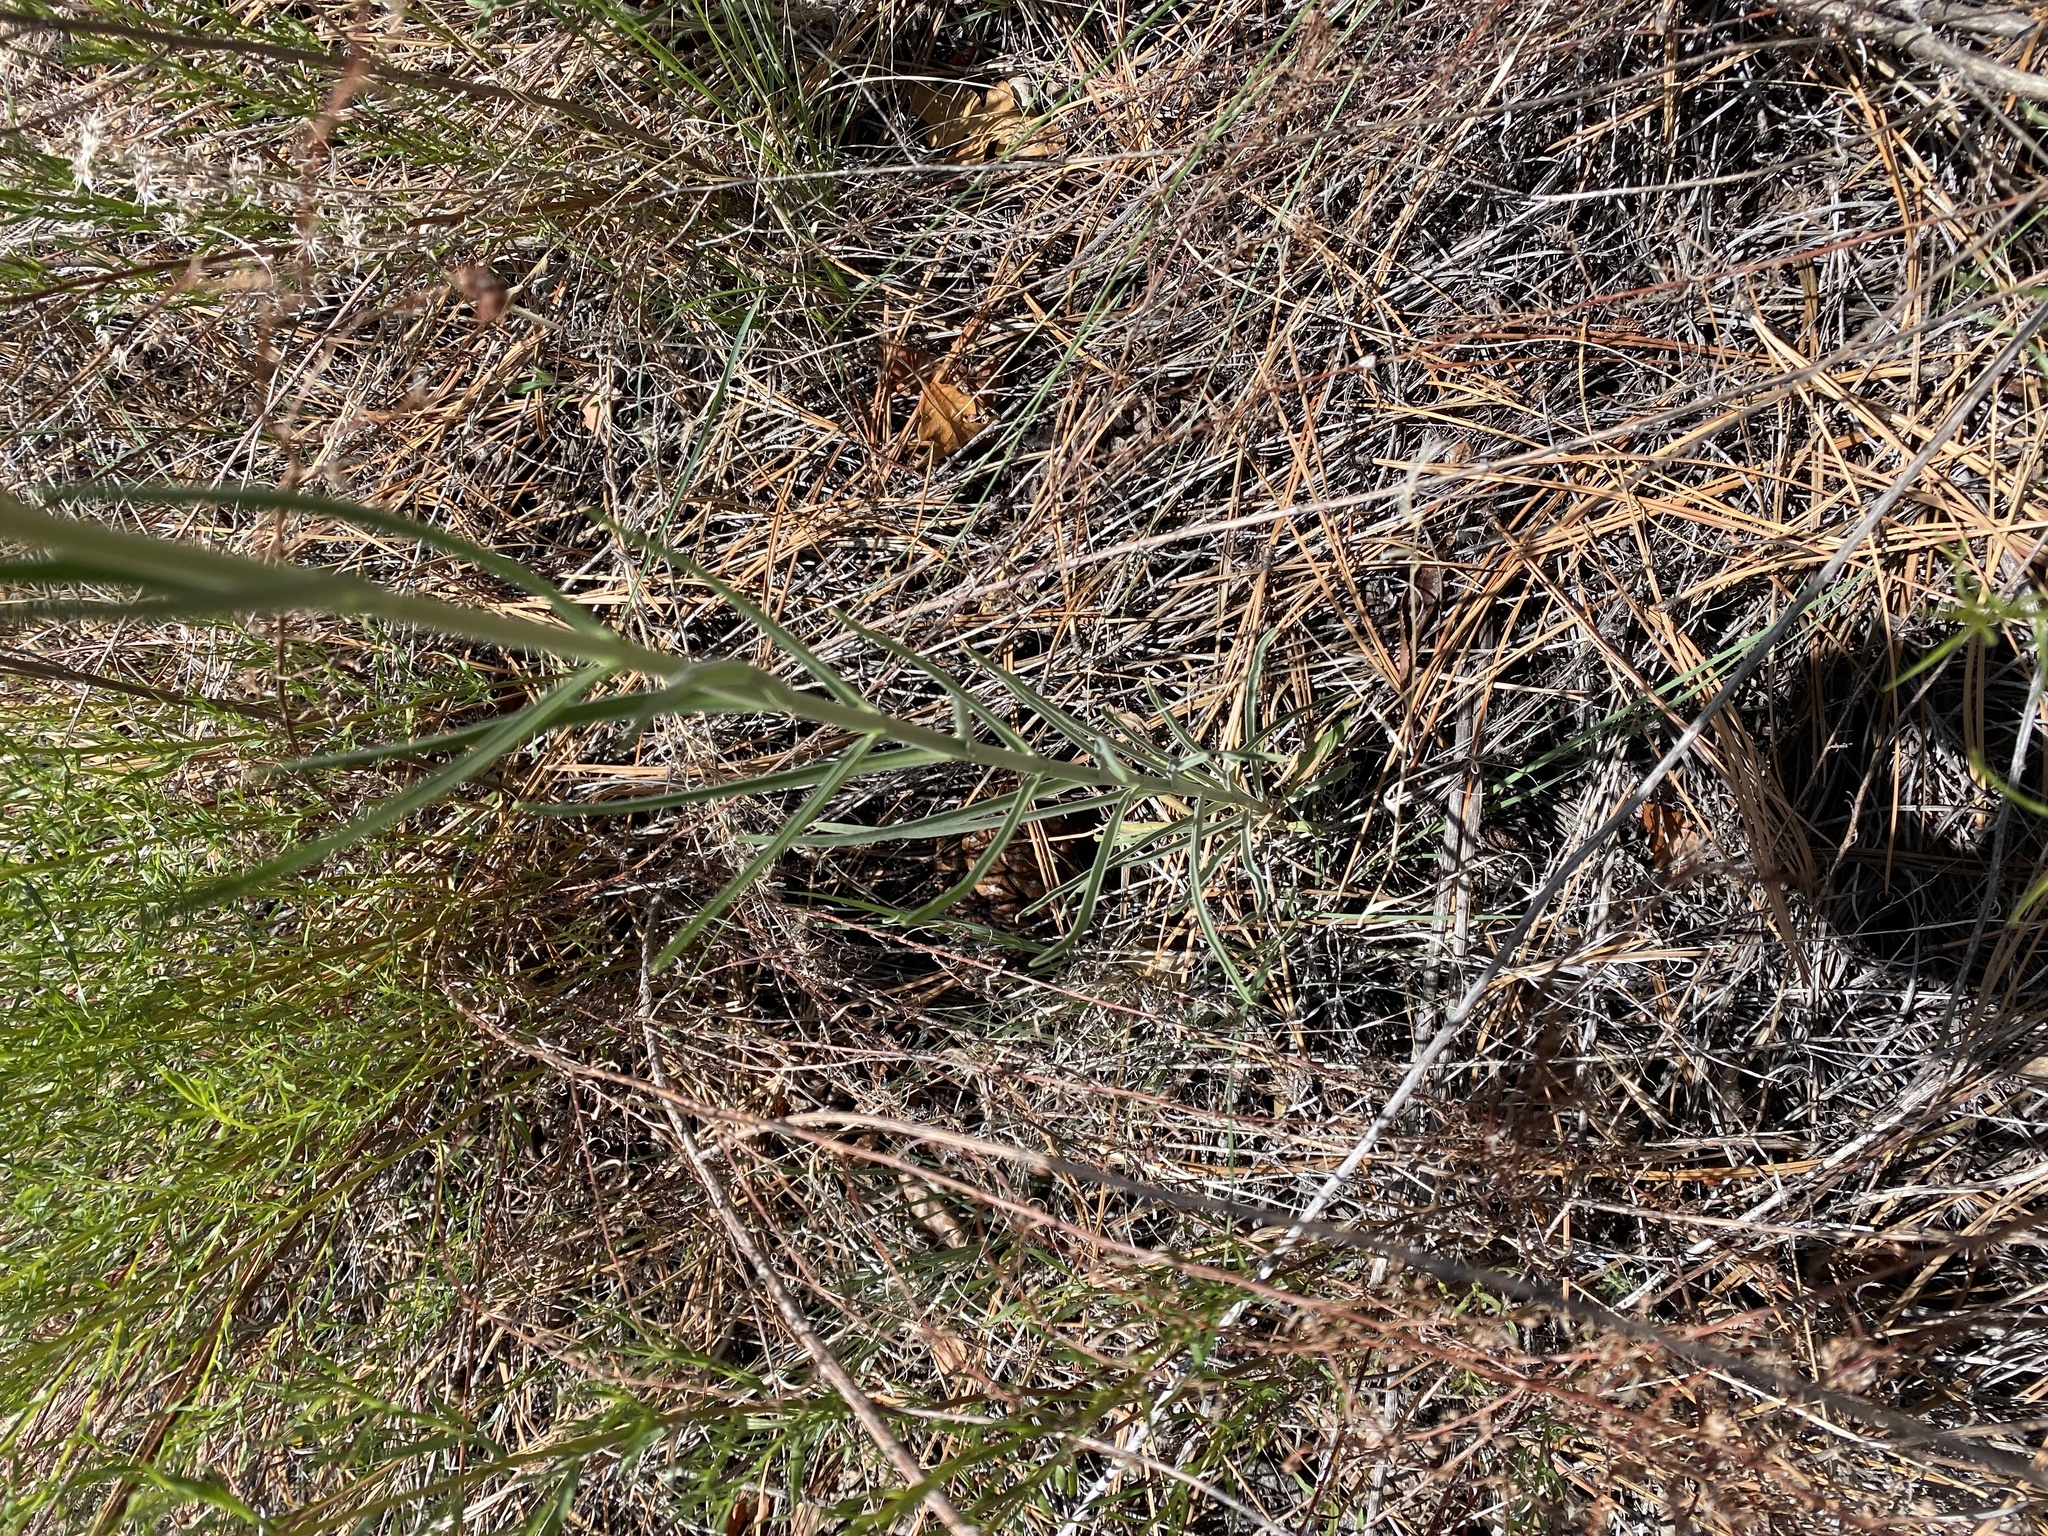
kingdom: Plantae
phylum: Tracheophyta
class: Magnoliopsida
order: Lamiales
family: Plantaginaceae
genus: Penstemon
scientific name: Penstemon virgatus
